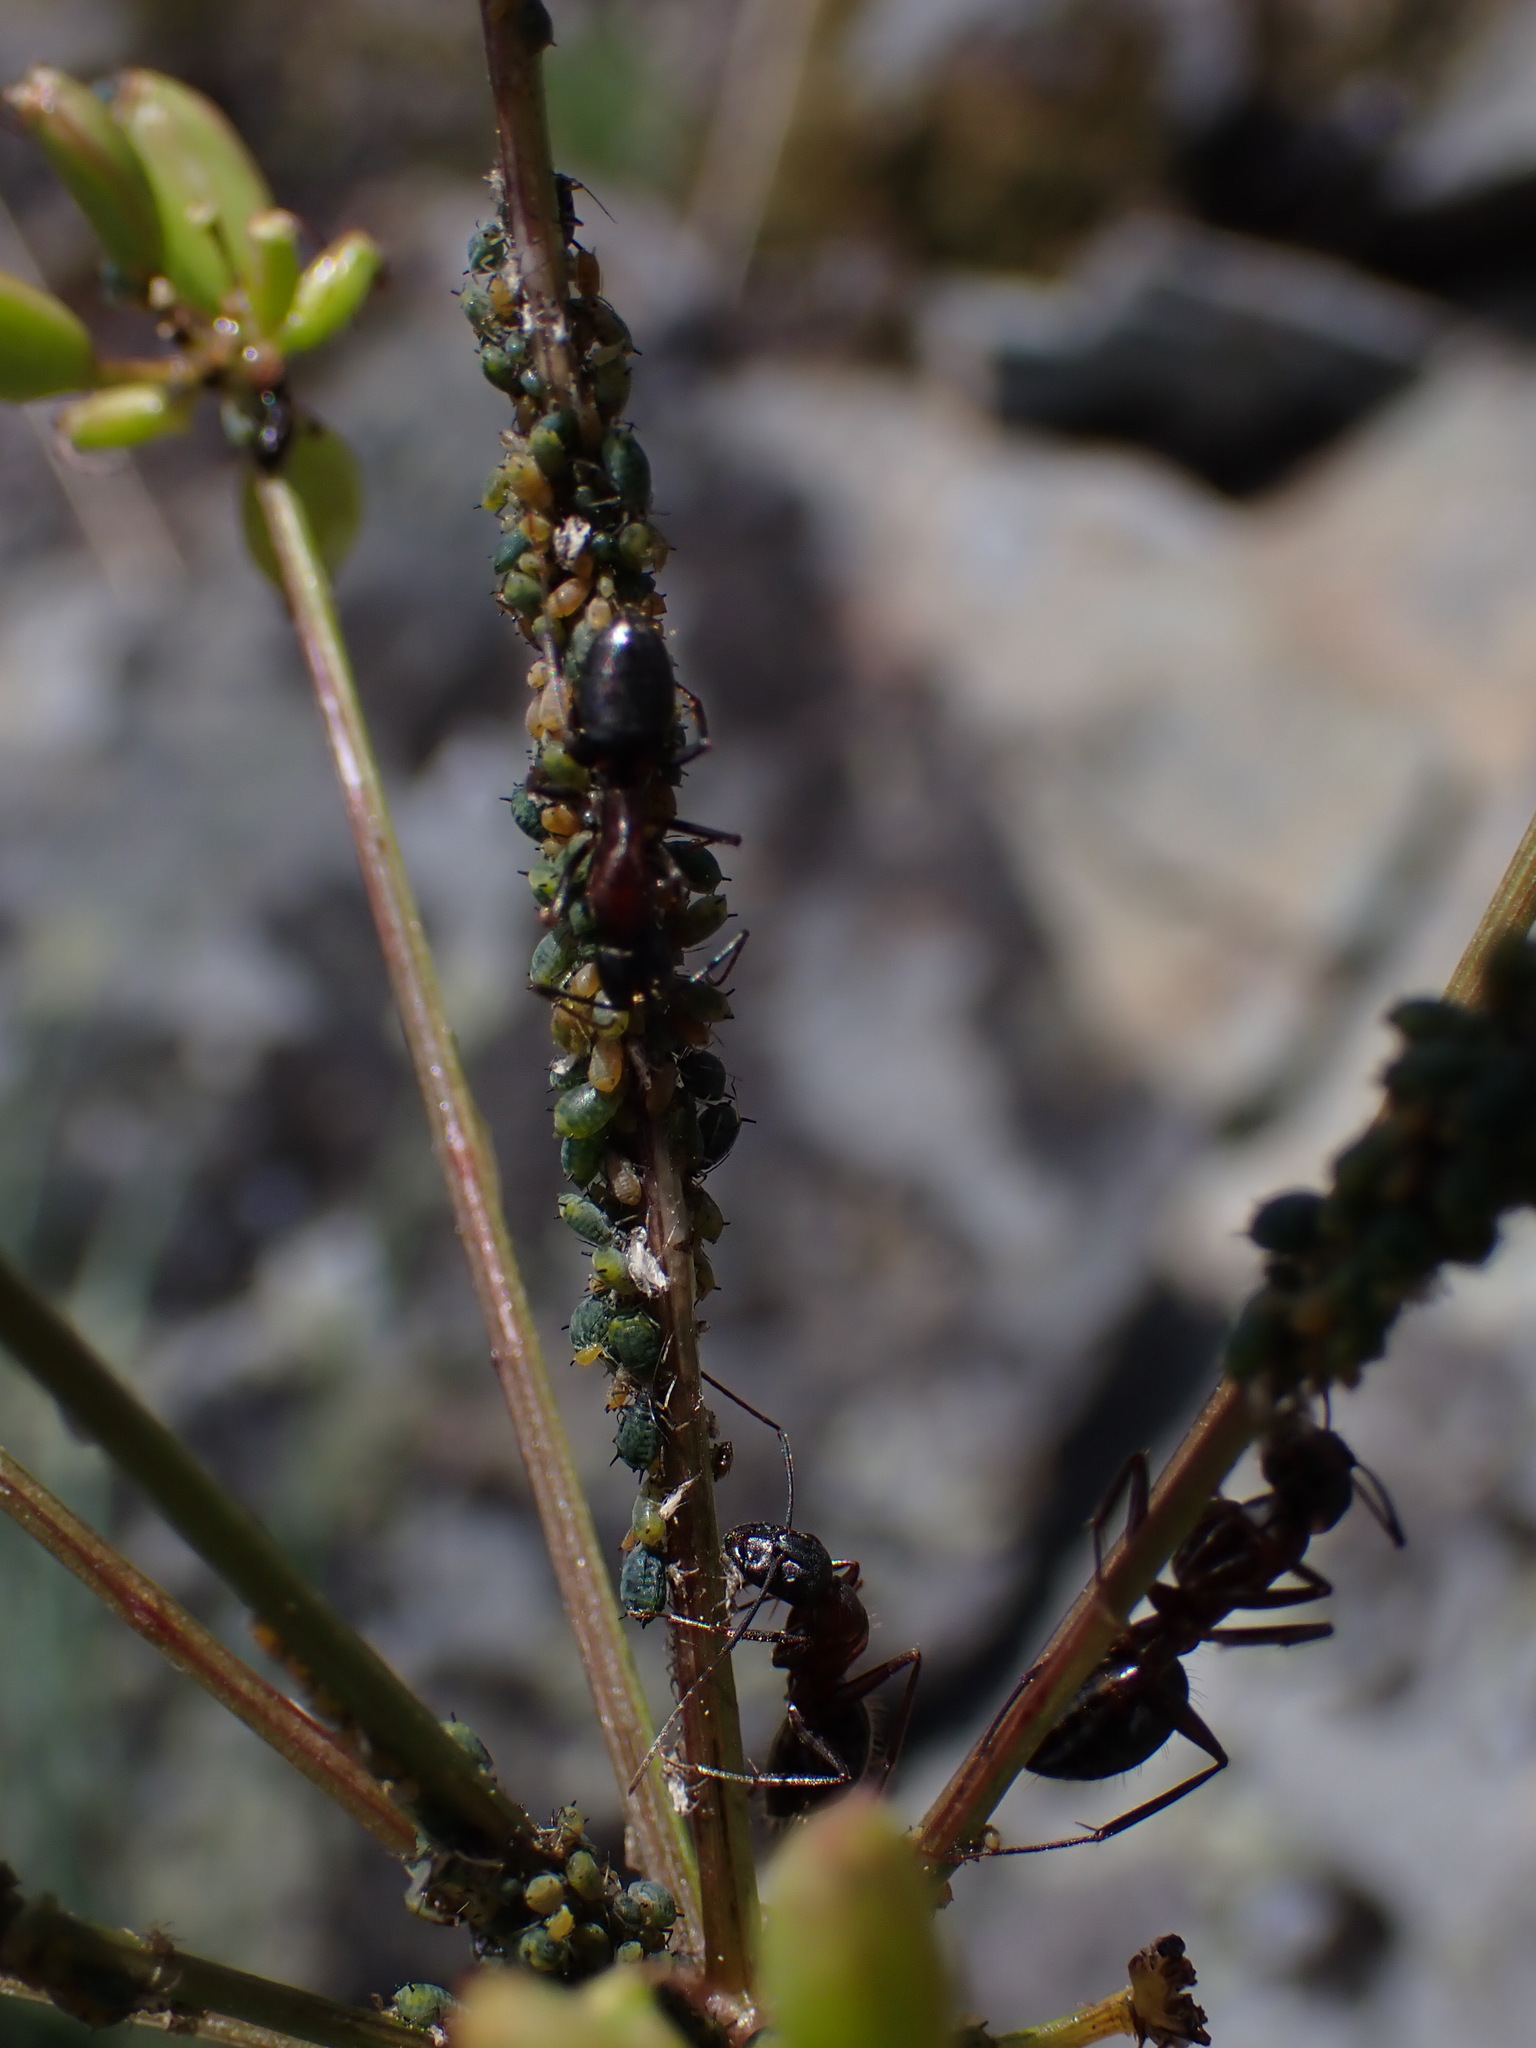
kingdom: Animalia
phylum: Arthropoda
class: Insecta
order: Hymenoptera
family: Formicidae
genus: Camponotus
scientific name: Camponotus vicinus
